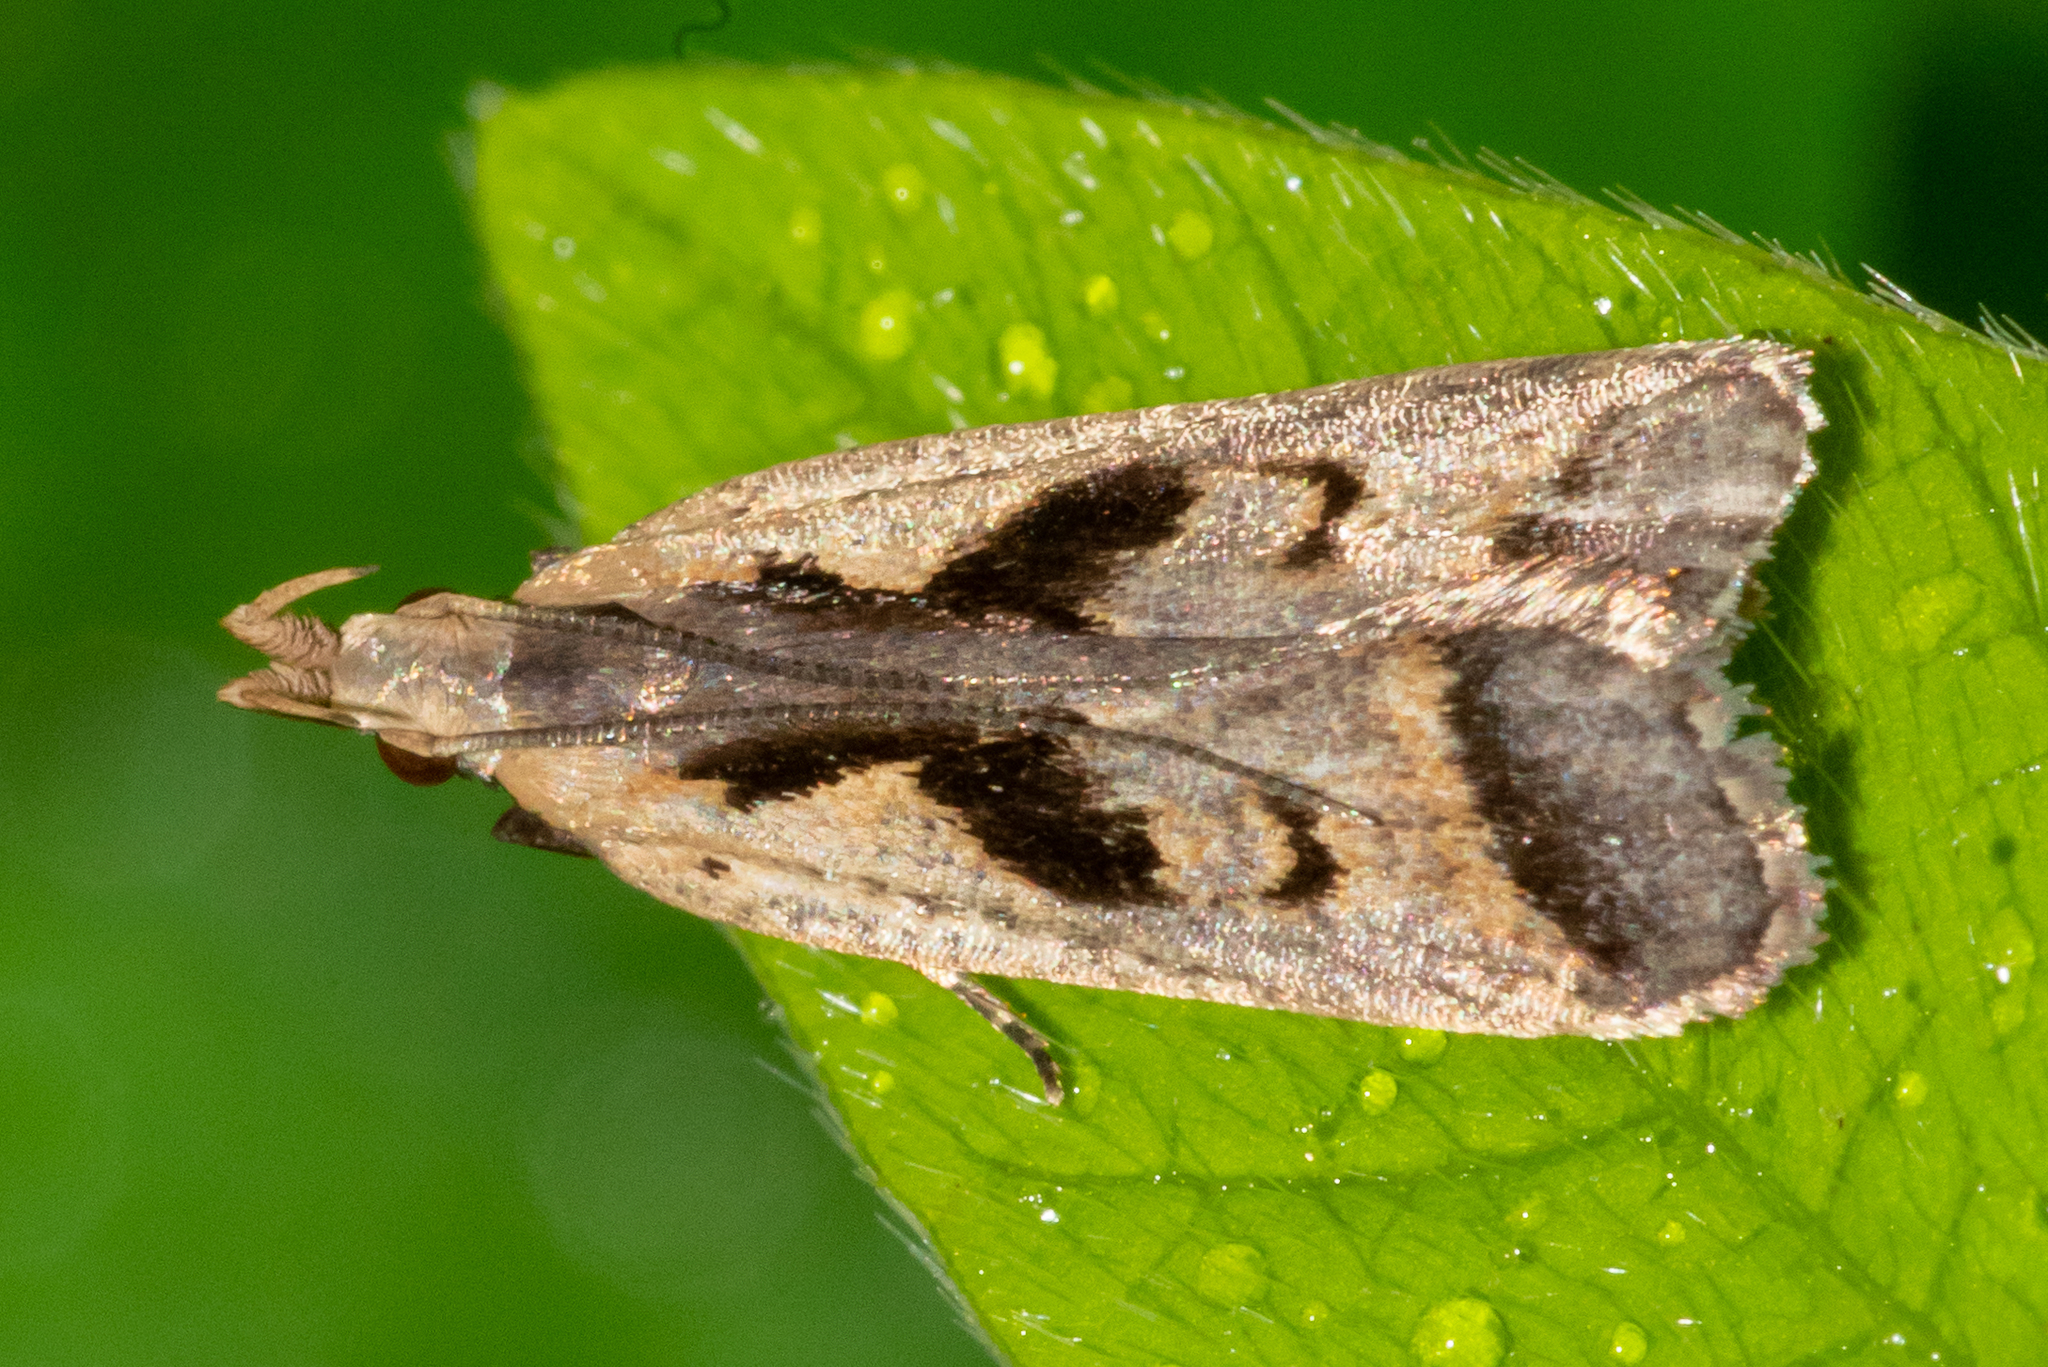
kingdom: Animalia
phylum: Arthropoda
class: Insecta
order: Lepidoptera
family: Gelechiidae
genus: Dichomeris
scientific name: Dichomeris bilobella
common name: Bilobed dichomeris moth
